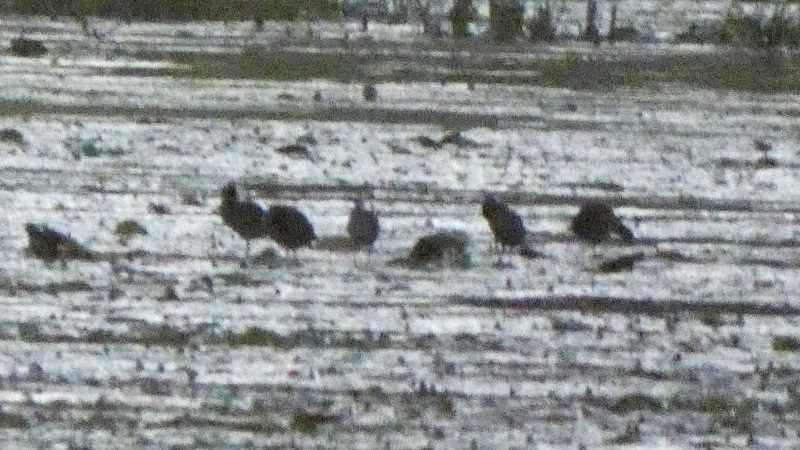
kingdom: Animalia
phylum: Chordata
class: Aves
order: Gruiformes
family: Rallidae
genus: Fulica
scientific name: Fulica atra
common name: Eurasian coot
